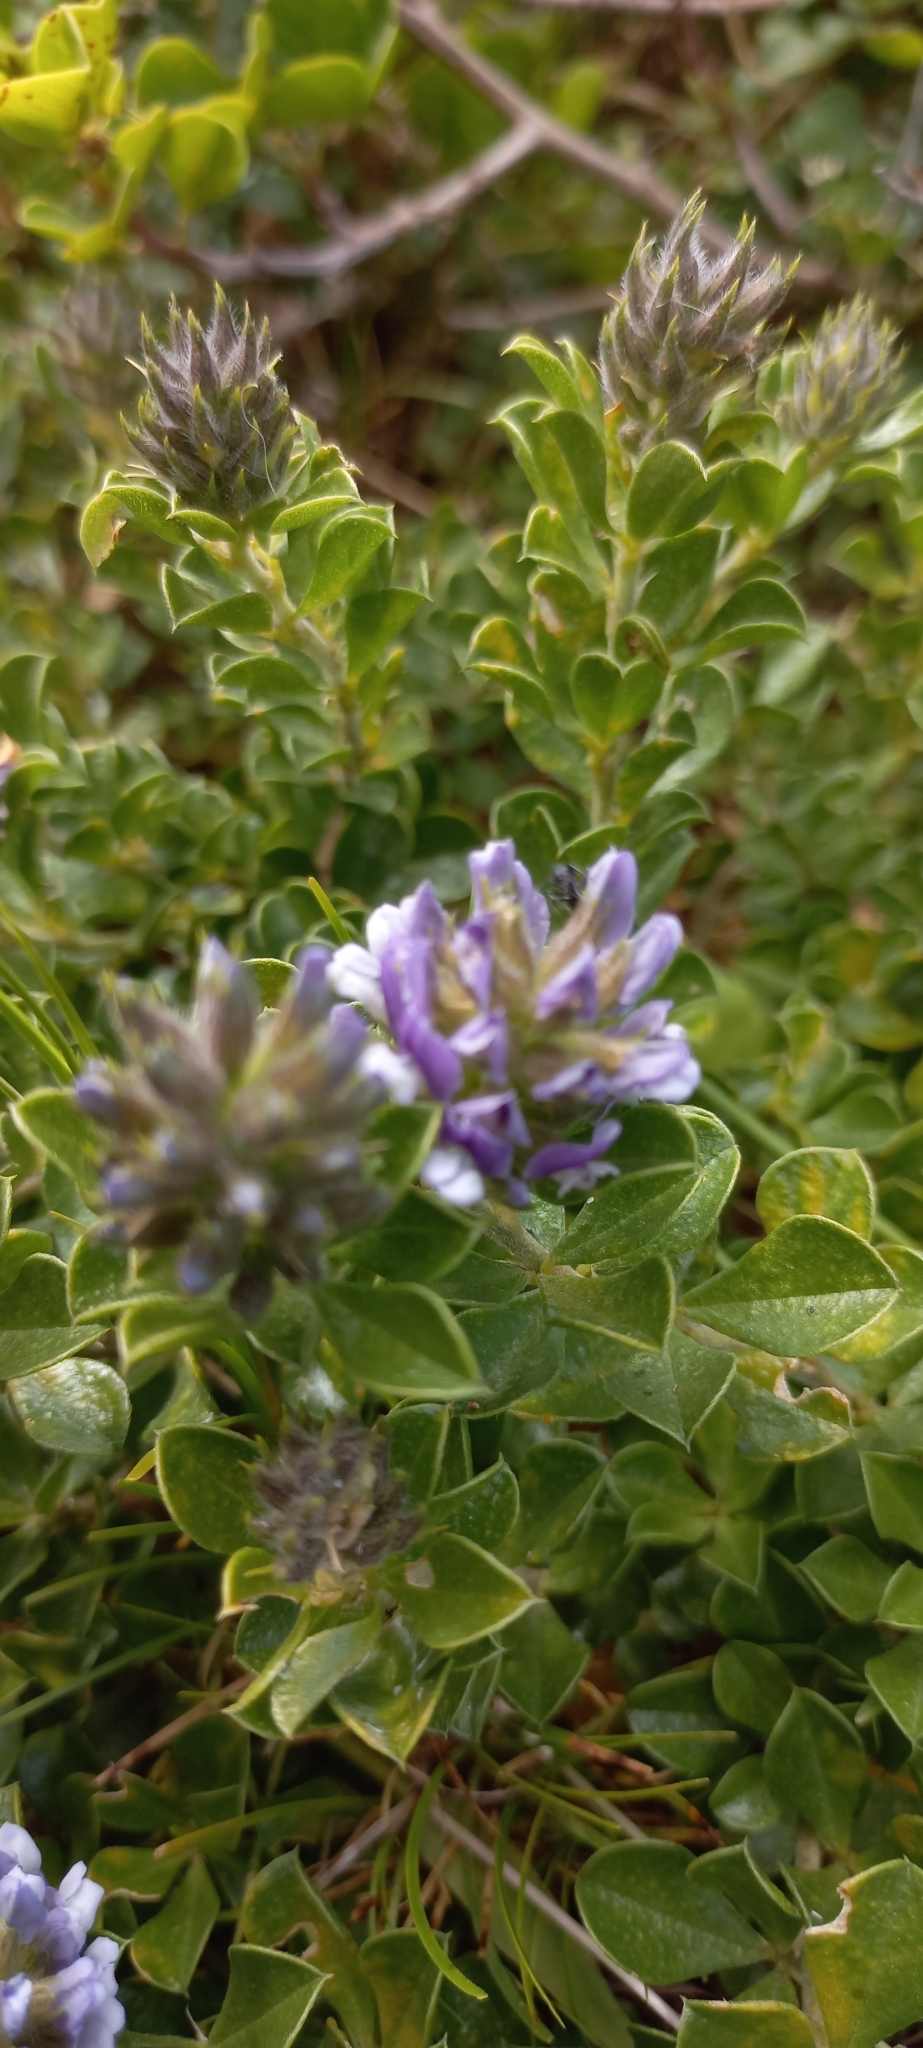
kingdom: Plantae
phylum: Tracheophyta
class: Magnoliopsida
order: Fabales
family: Fabaceae
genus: Psoralea
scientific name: Psoralea bracteolata
